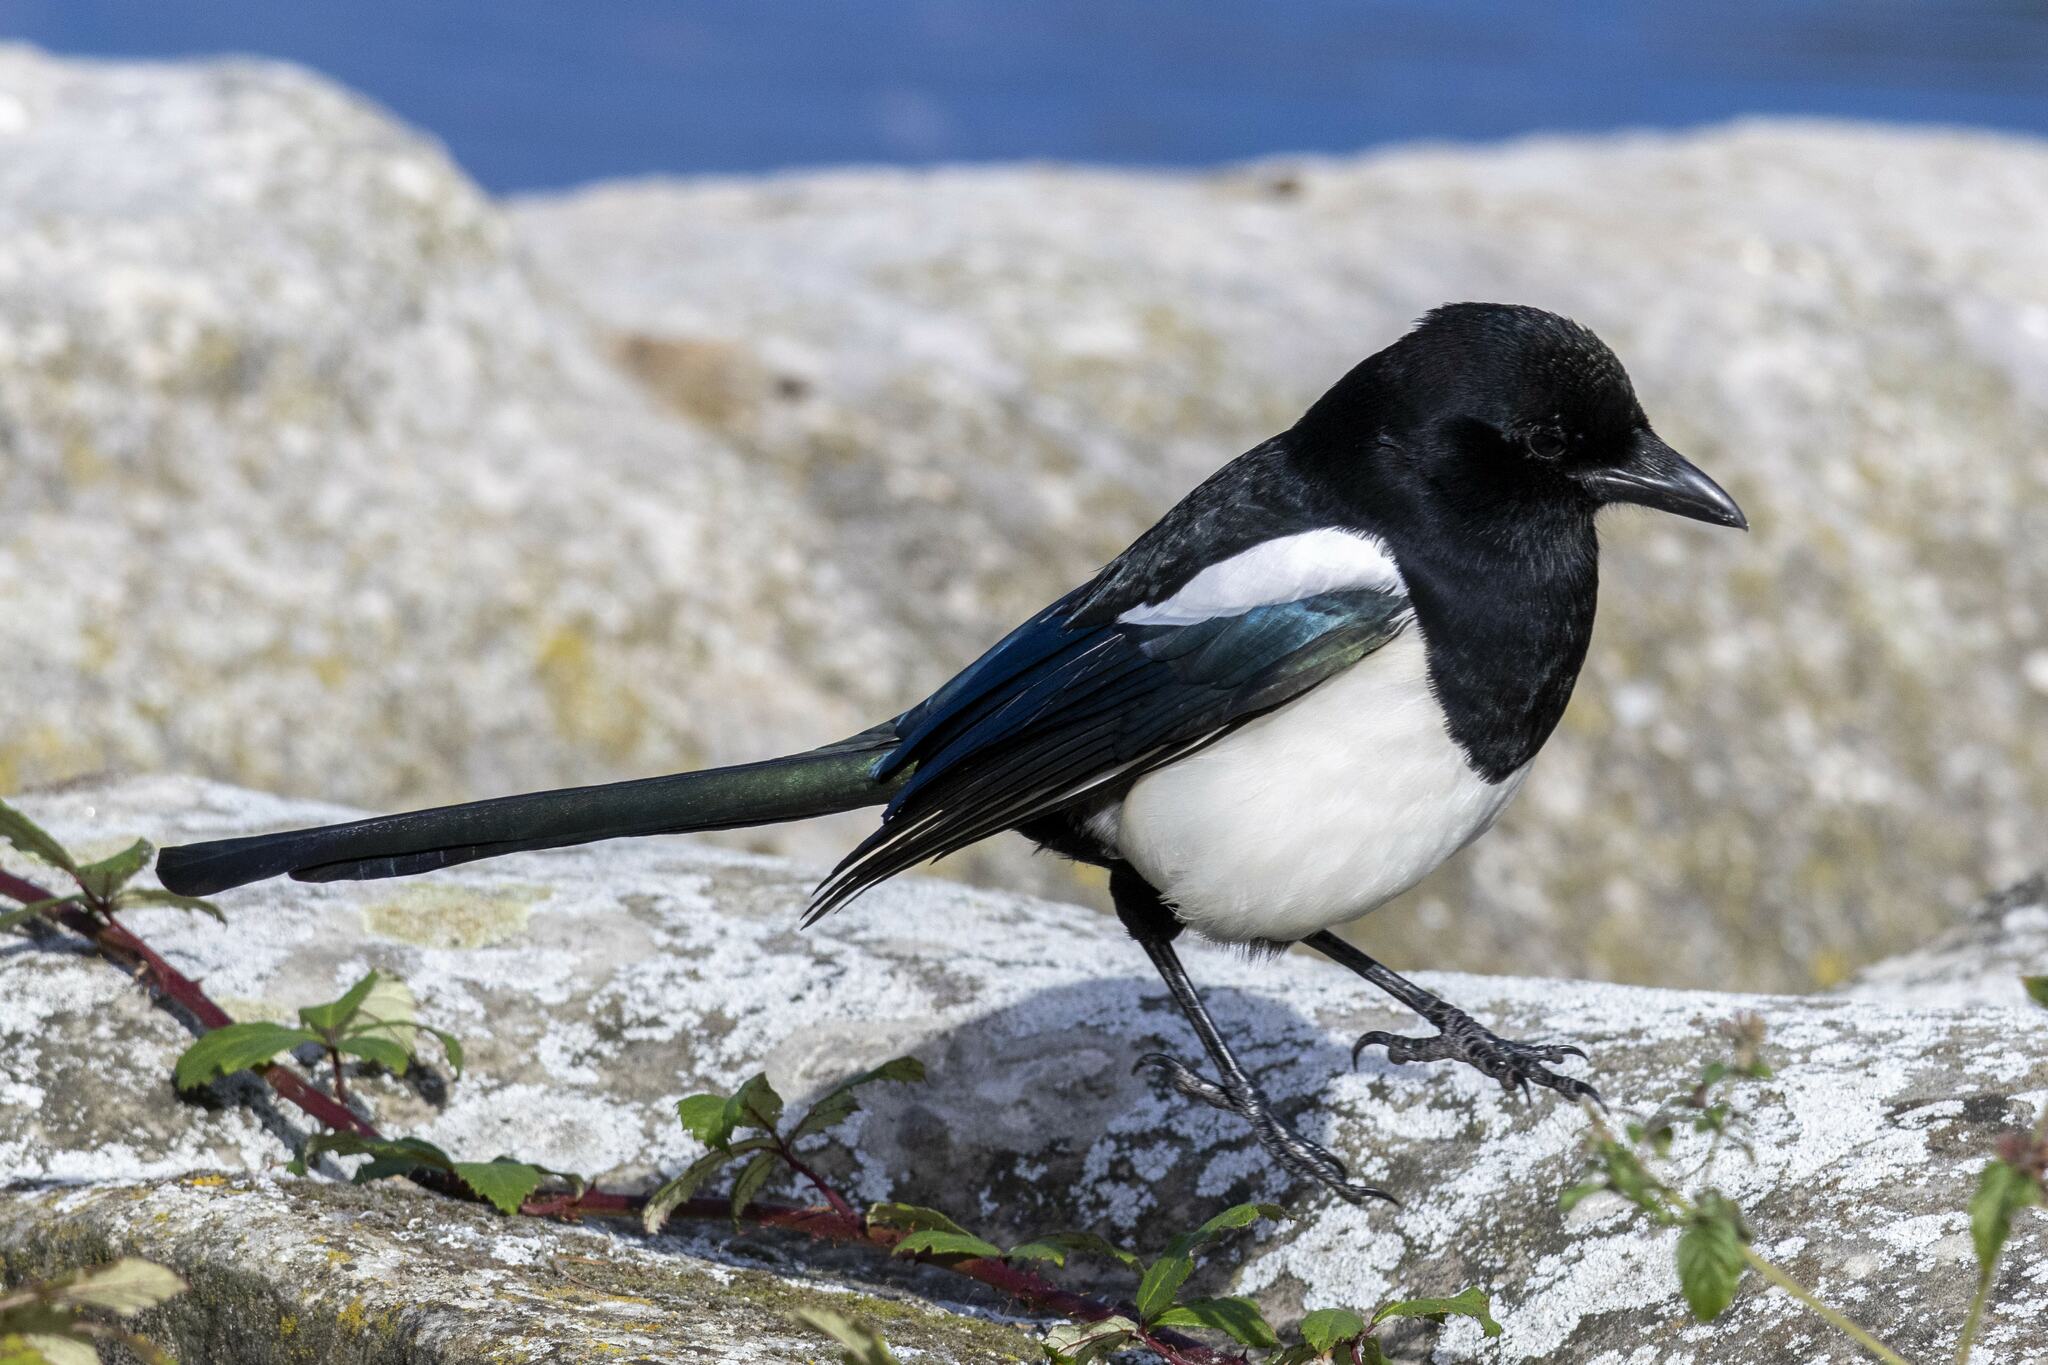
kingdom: Animalia
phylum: Chordata
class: Aves
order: Passeriformes
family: Corvidae
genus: Pica
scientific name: Pica pica
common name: Eurasian magpie
